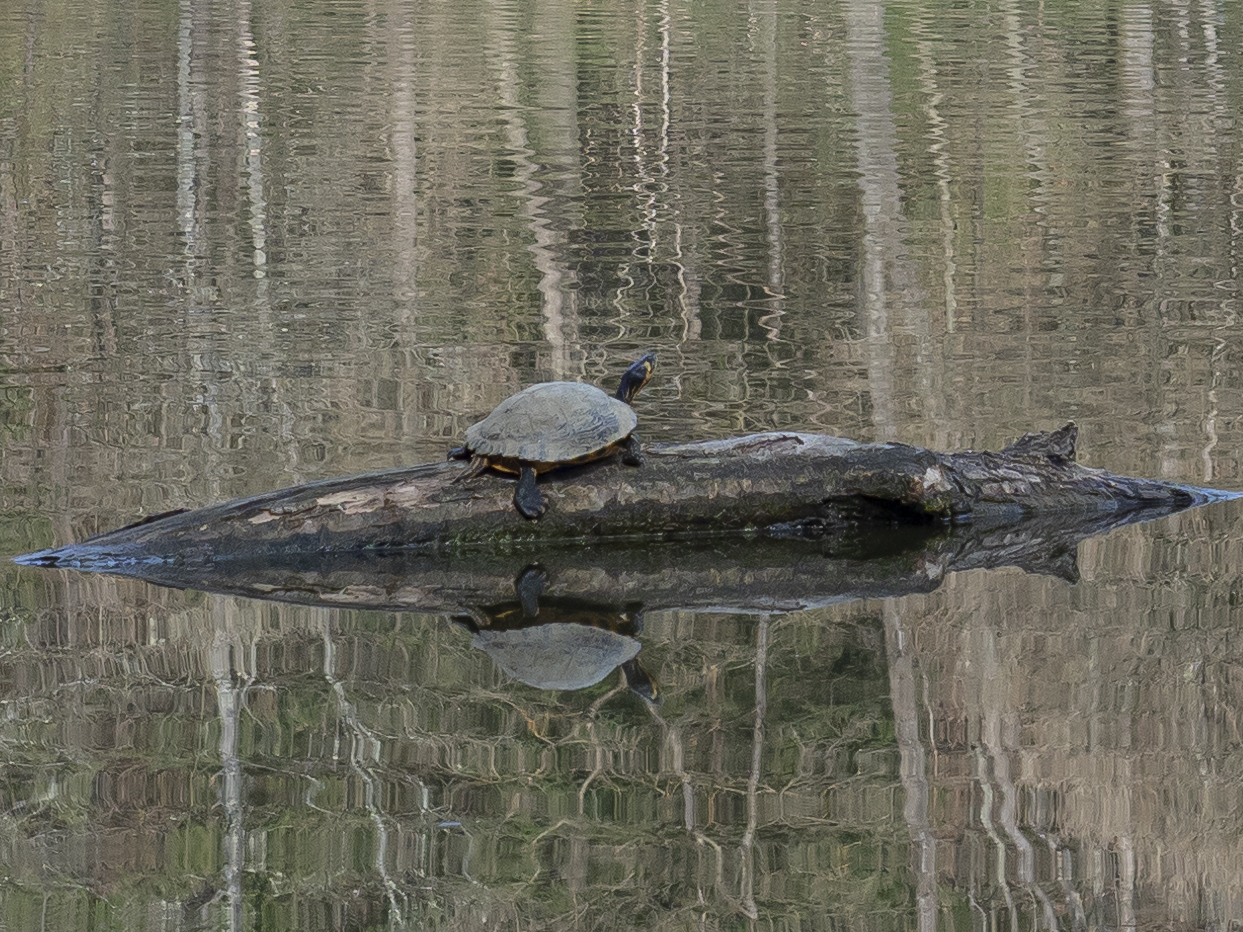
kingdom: Animalia
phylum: Chordata
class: Testudines
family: Emydidae
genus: Trachemys
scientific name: Trachemys scripta
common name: Slider
